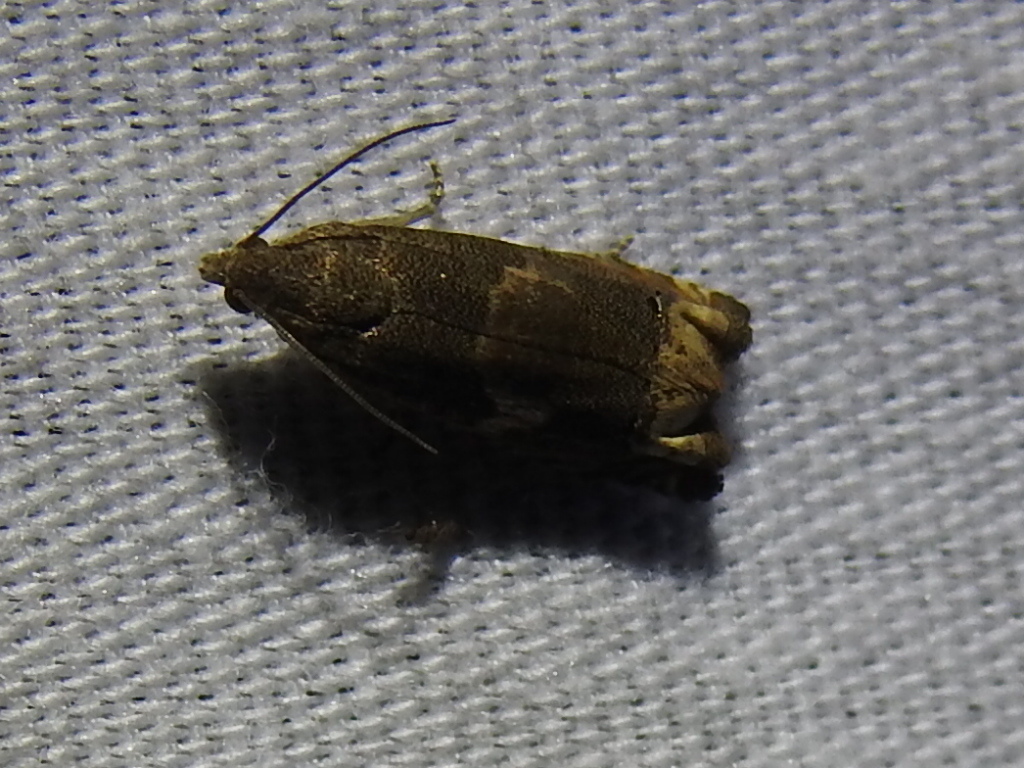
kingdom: Animalia
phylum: Arthropoda
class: Insecta
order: Lepidoptera
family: Tortricidae
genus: Epiblema
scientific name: Epiblema strenuana
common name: Ragweed borer moth
